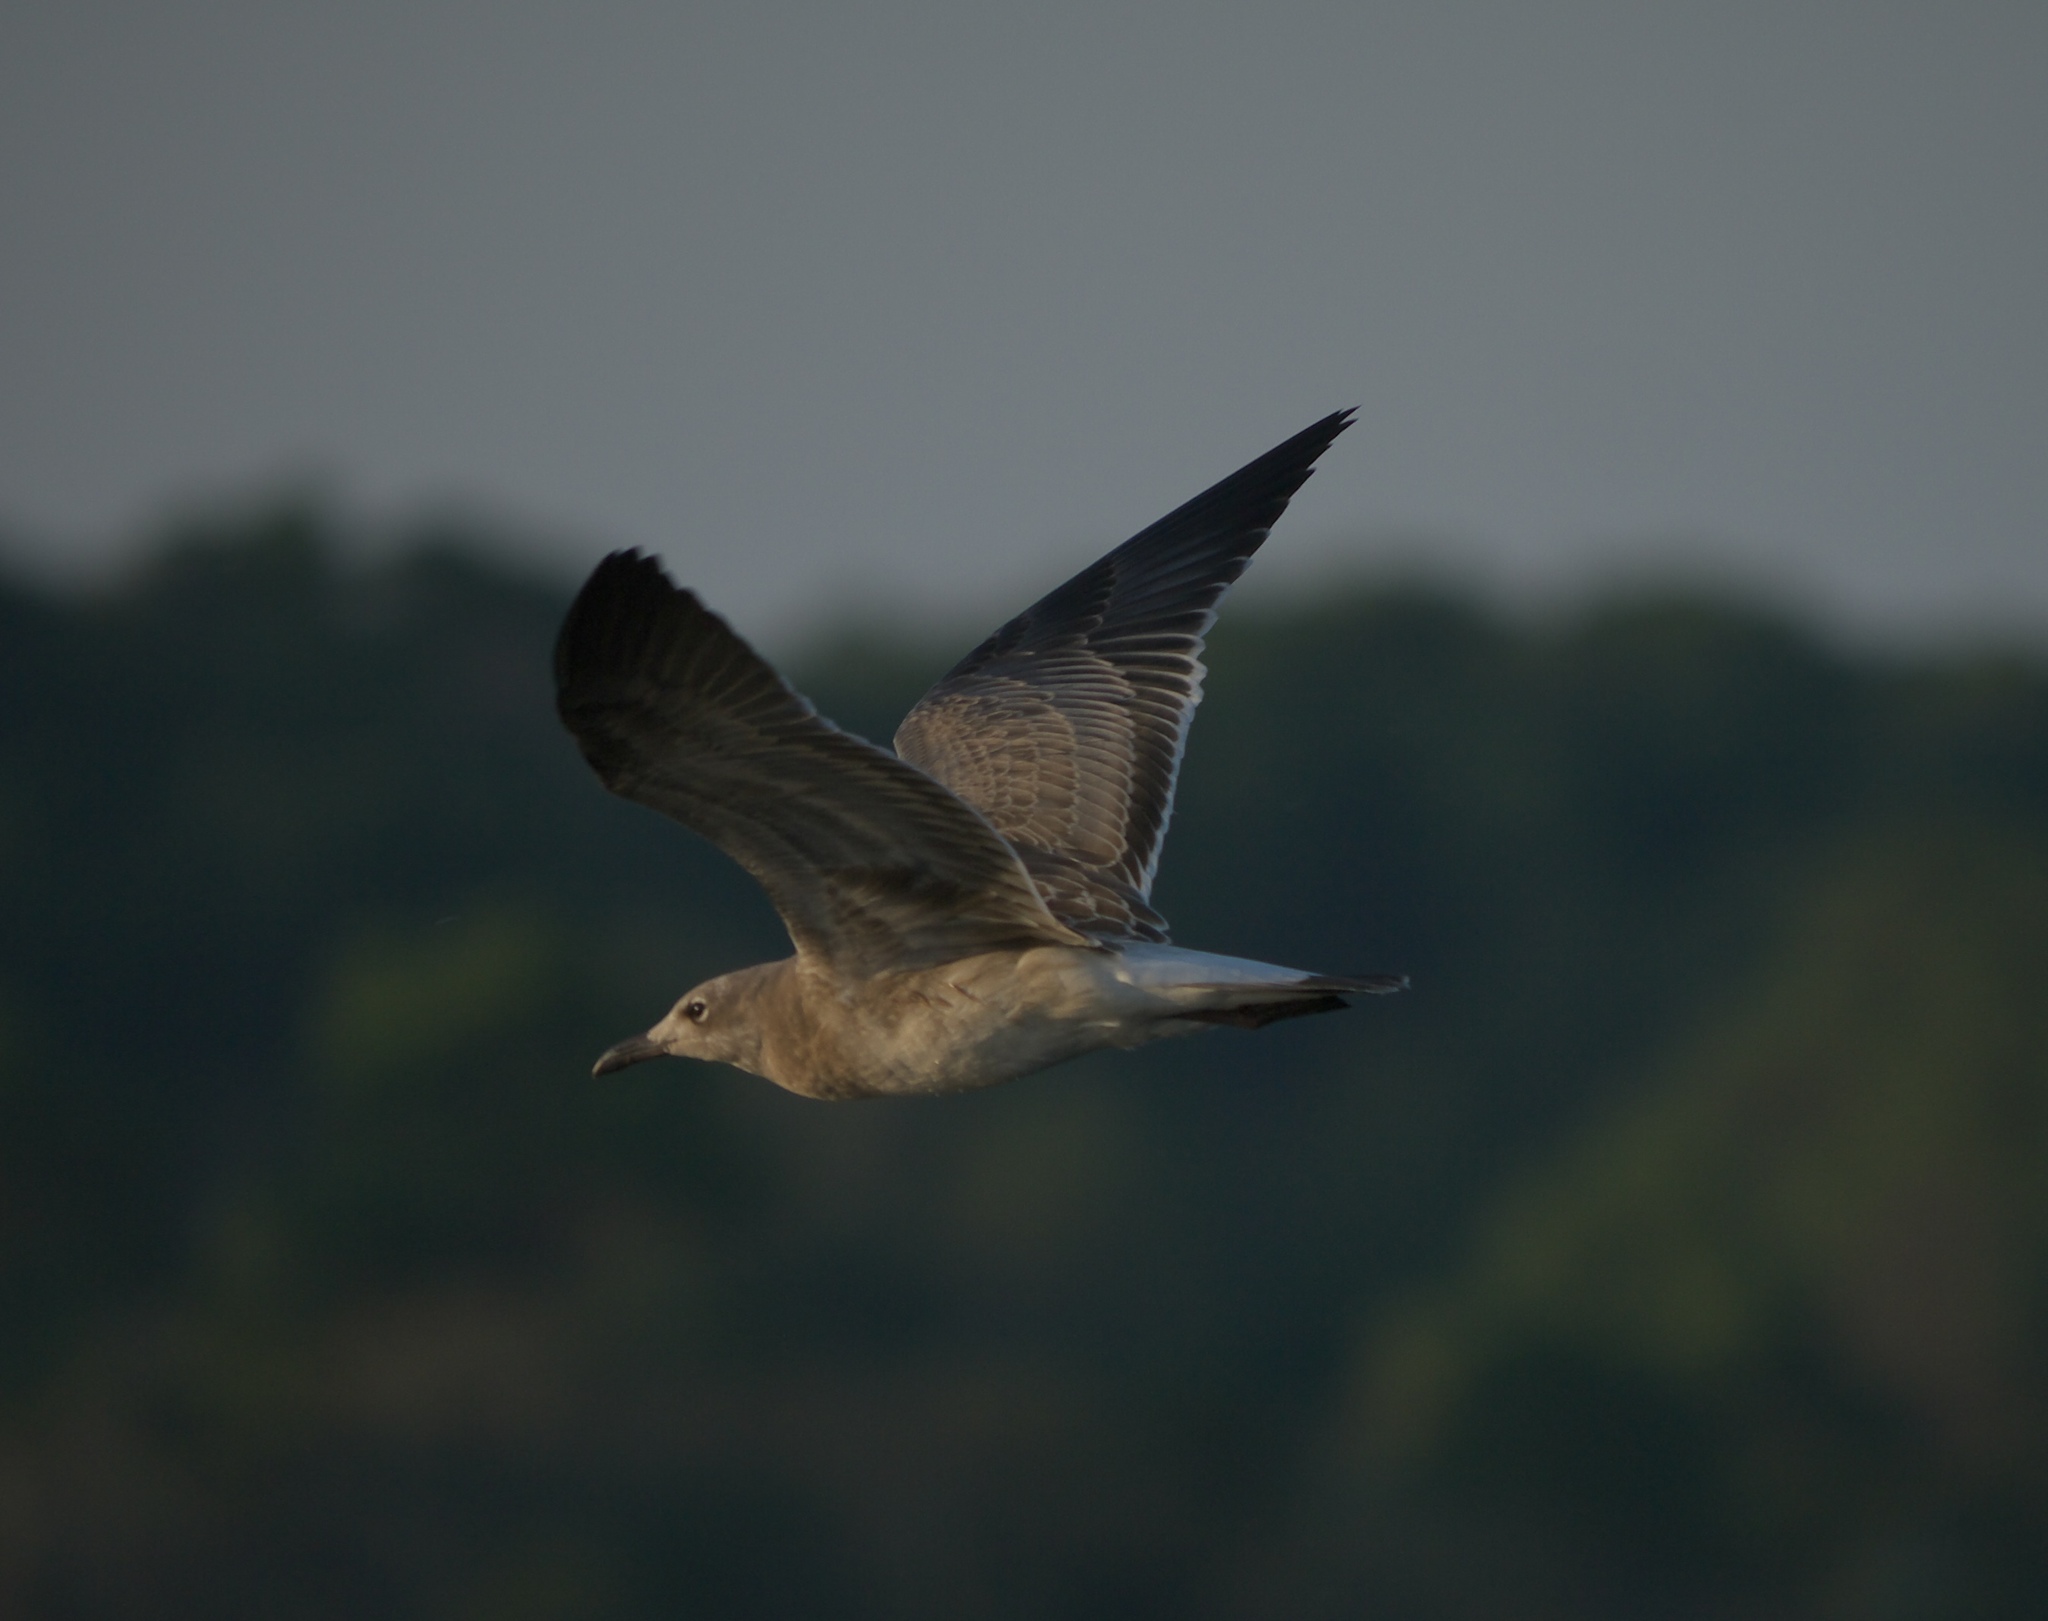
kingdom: Animalia
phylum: Chordata
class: Aves
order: Charadriiformes
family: Laridae
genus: Leucophaeus
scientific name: Leucophaeus atricilla
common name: Laughing gull
